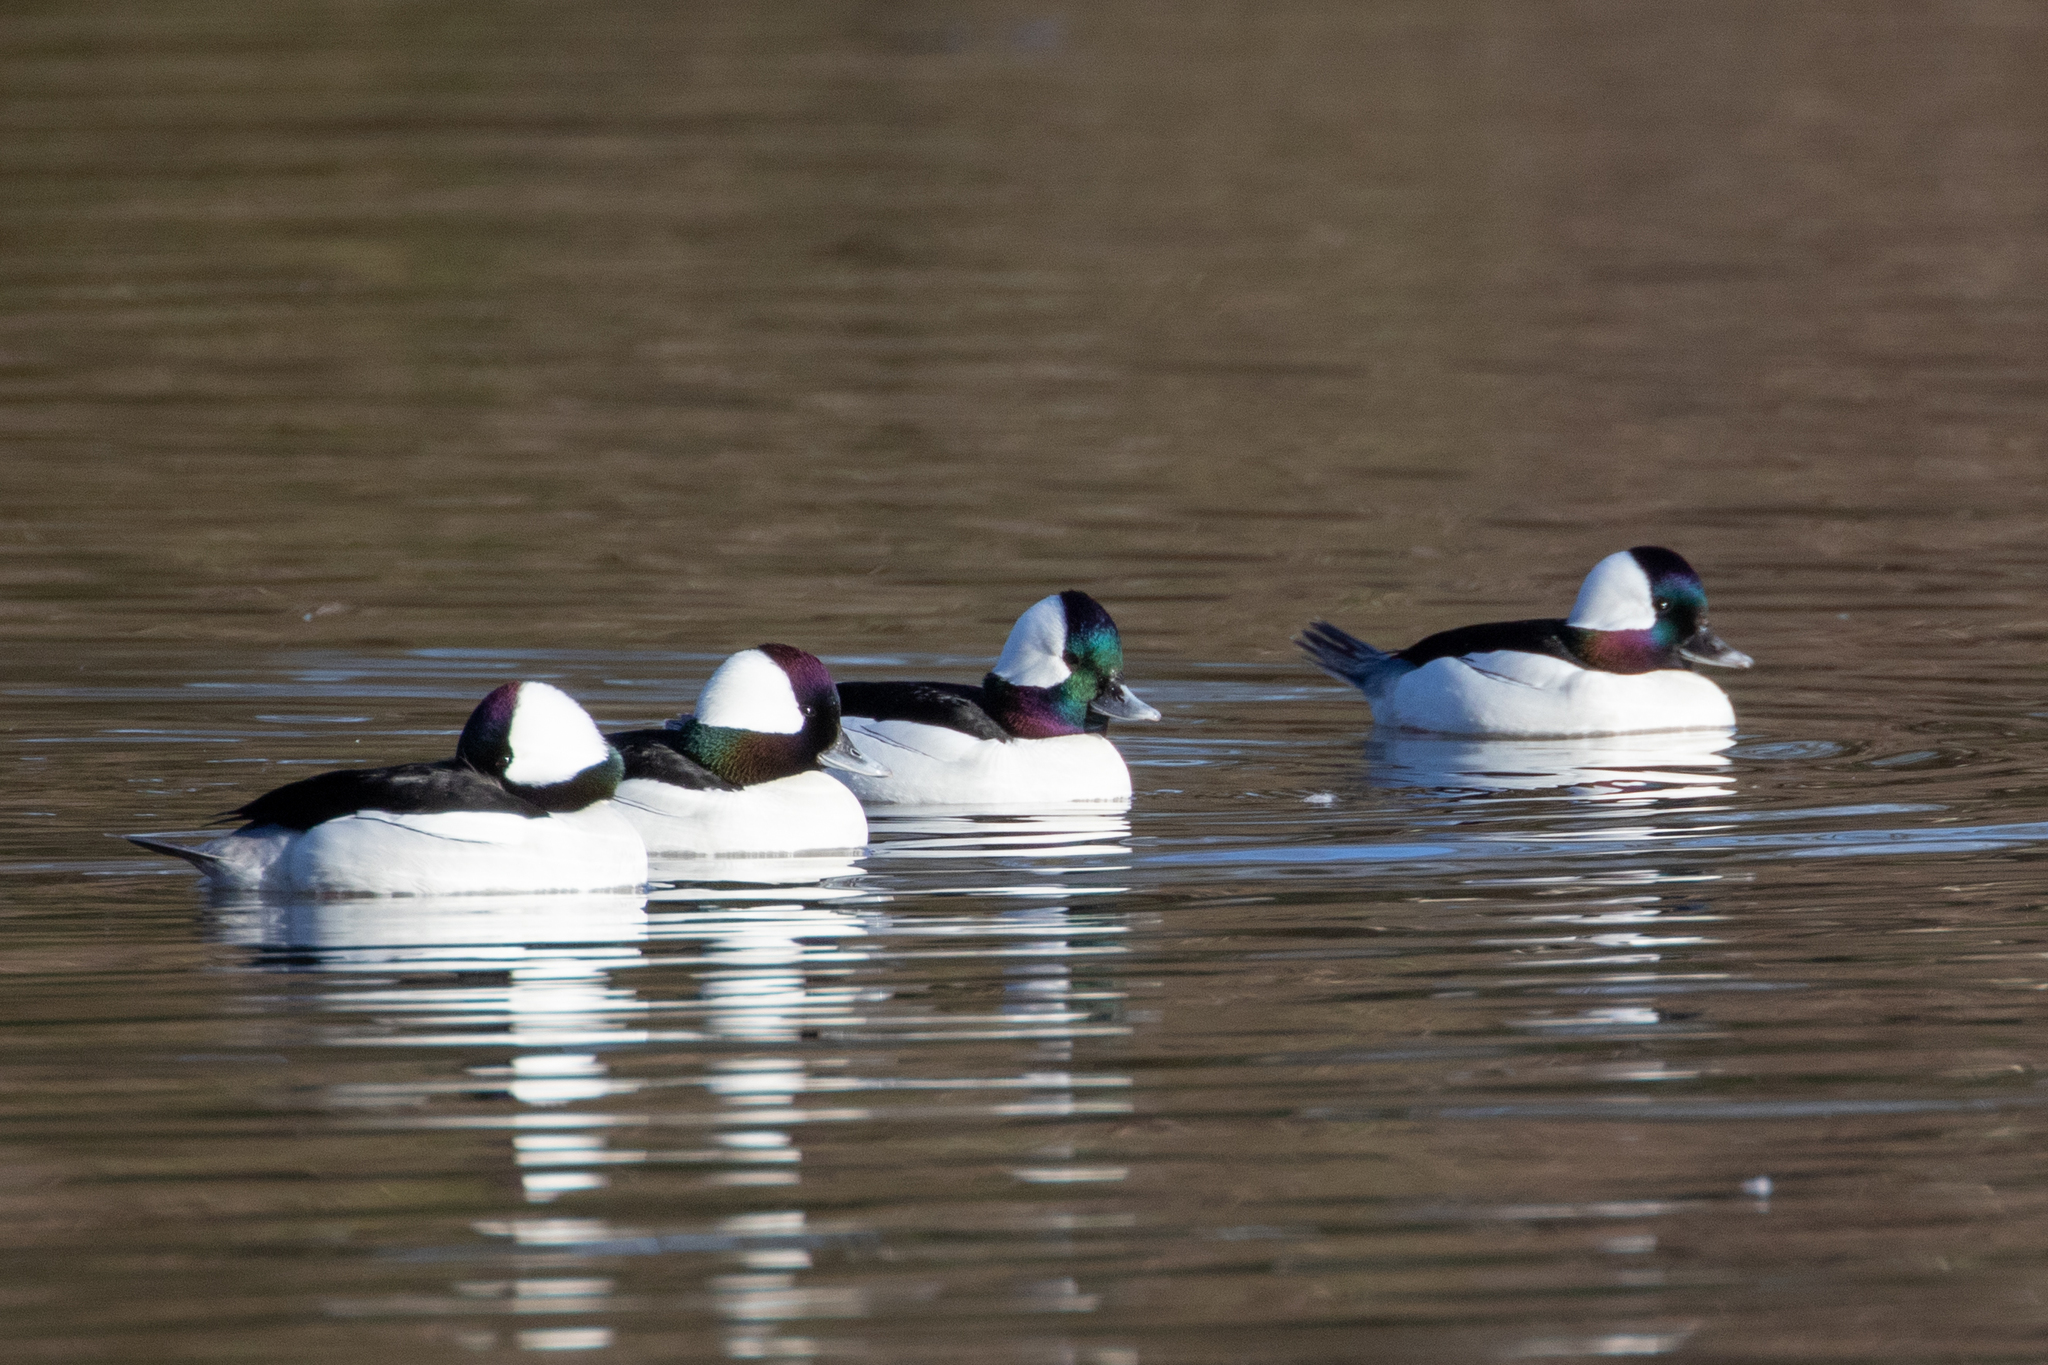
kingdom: Animalia
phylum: Chordata
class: Aves
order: Anseriformes
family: Anatidae
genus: Bucephala
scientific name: Bucephala albeola
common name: Bufflehead
